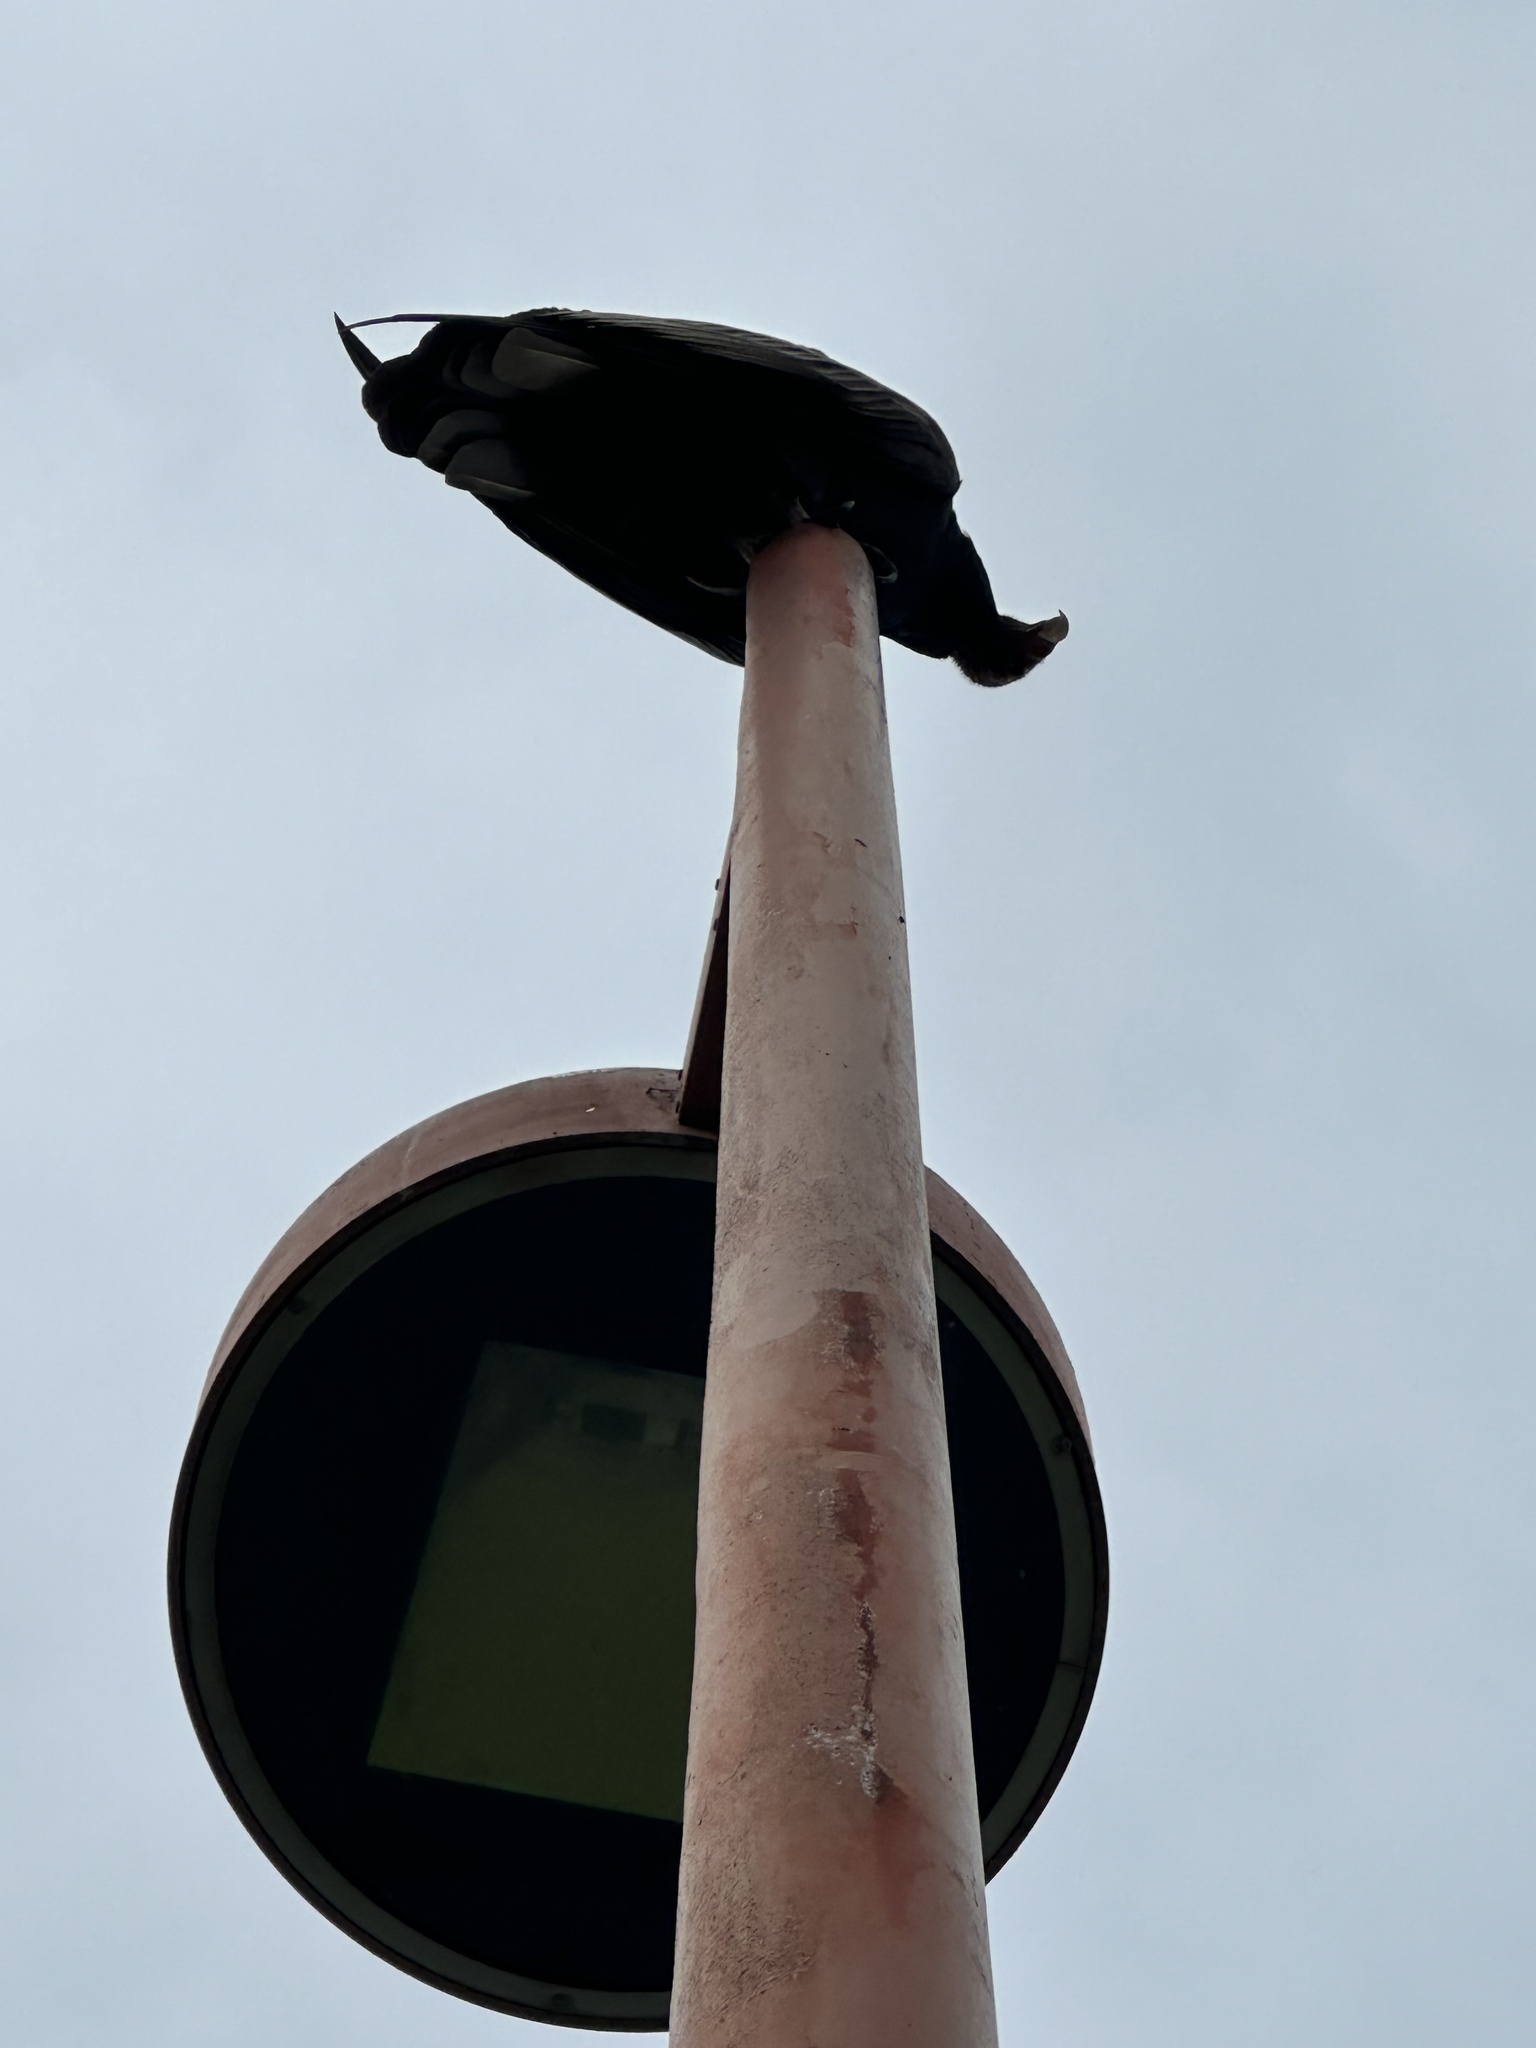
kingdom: Animalia
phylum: Chordata
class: Aves
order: Accipitriformes
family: Cathartidae
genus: Cathartes
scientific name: Cathartes aura
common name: Turkey vulture
